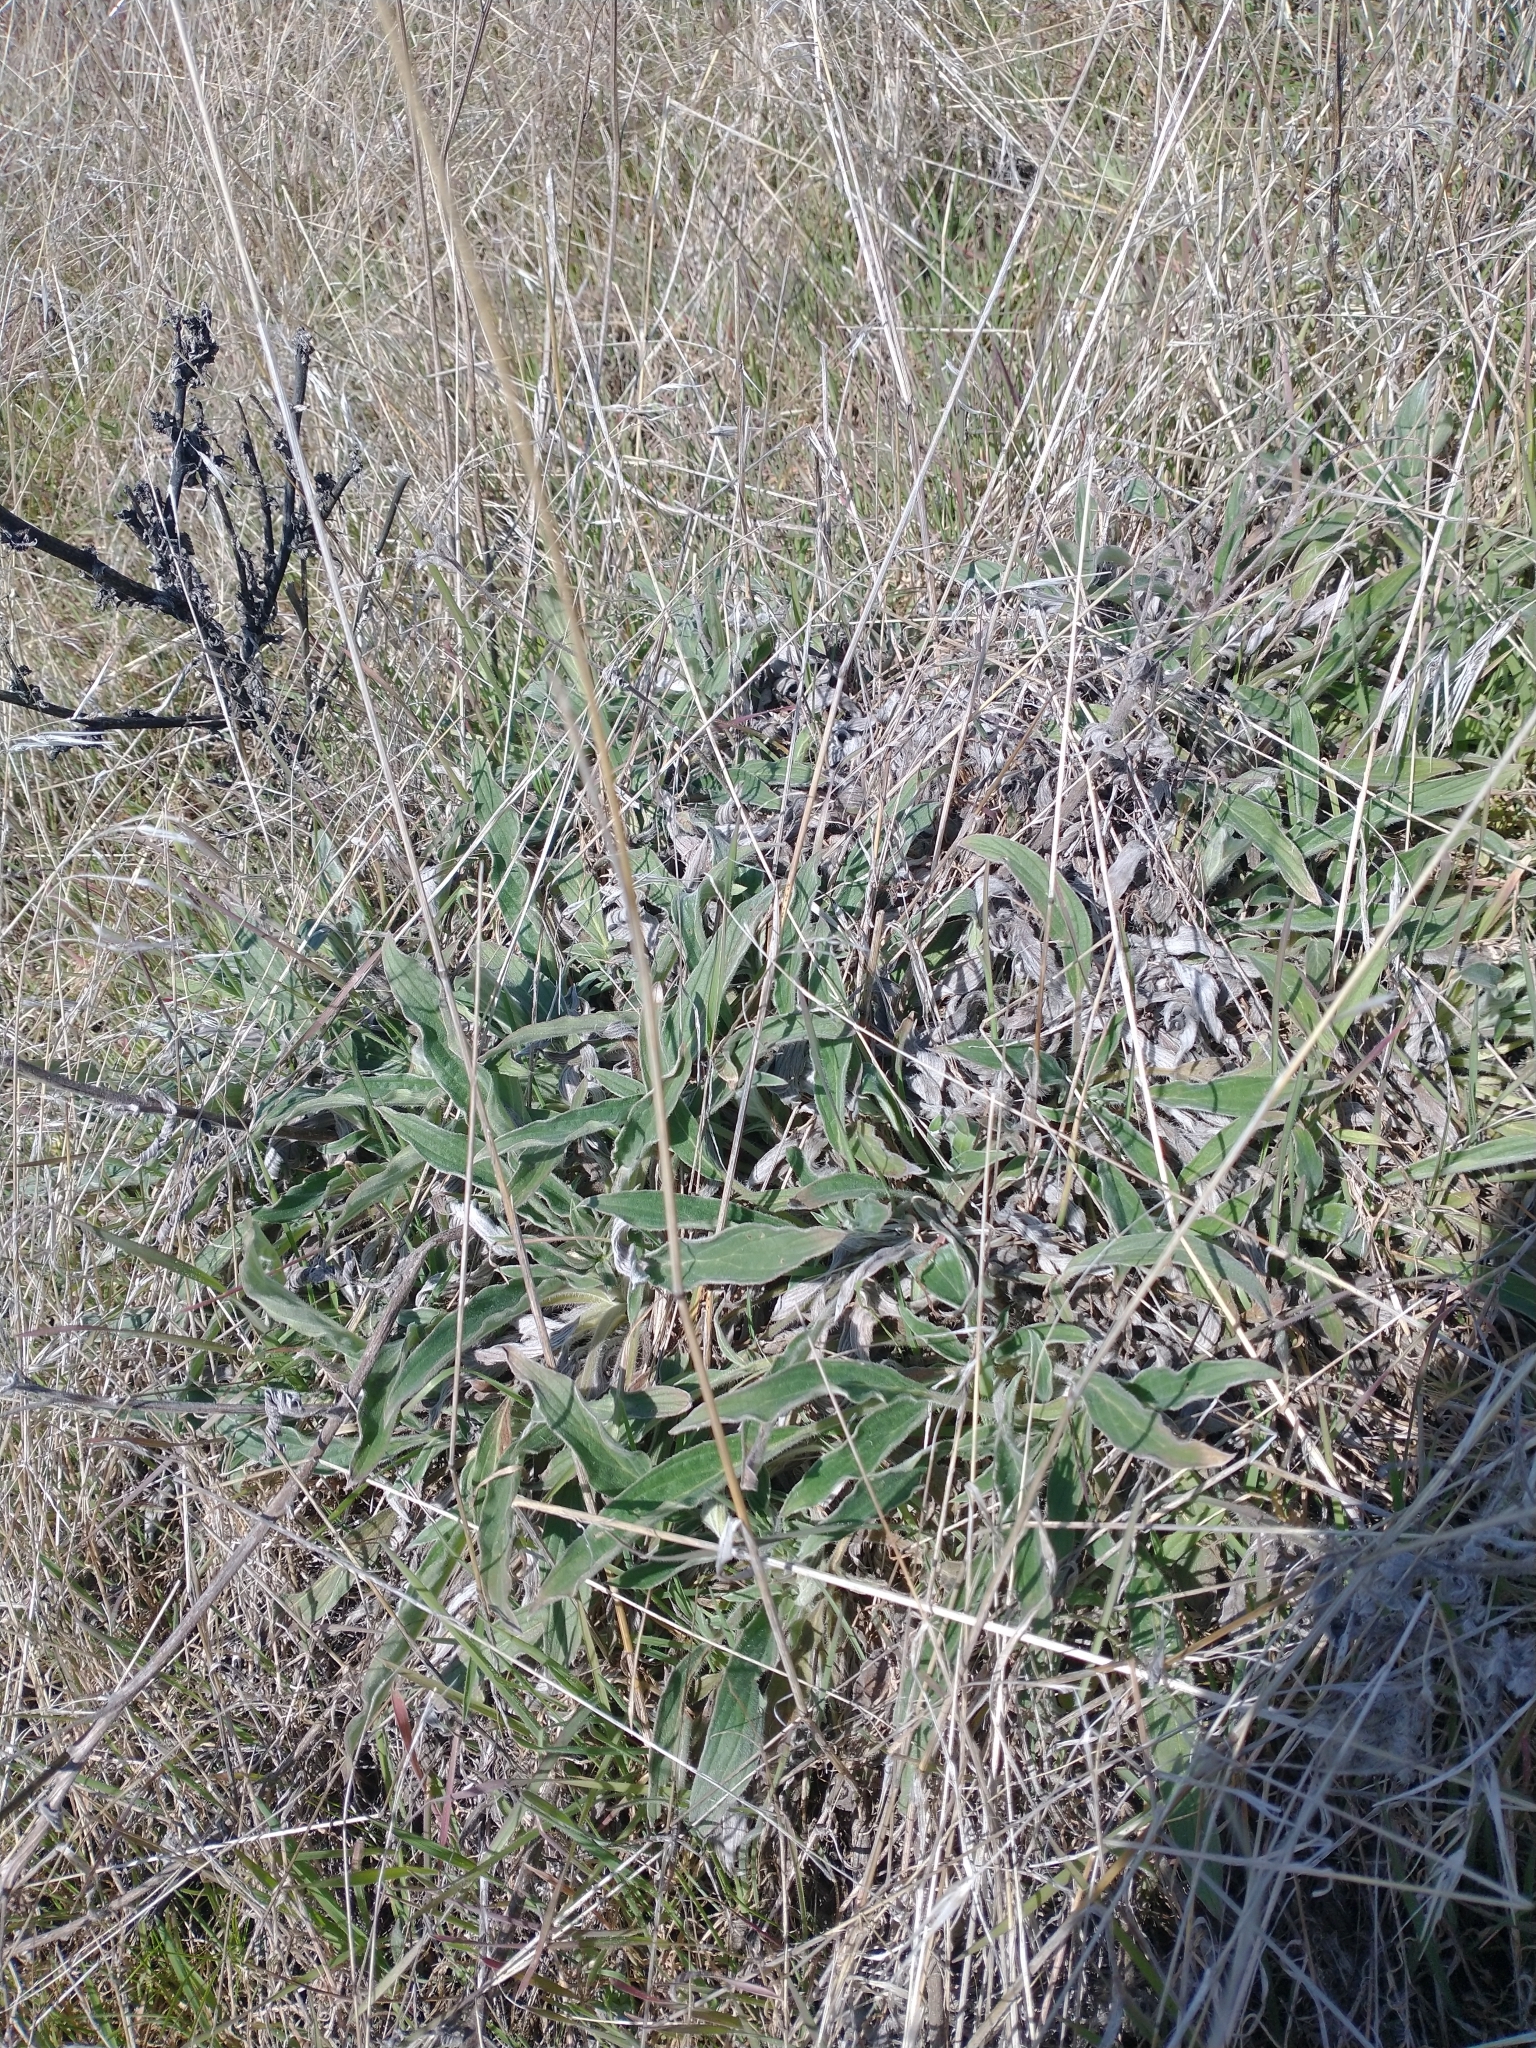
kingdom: Plantae
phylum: Tracheophyta
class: Magnoliopsida
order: Boraginales
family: Hydrophyllaceae
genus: Phacelia
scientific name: Phacelia hastata
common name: Silver-leaved phacelia
